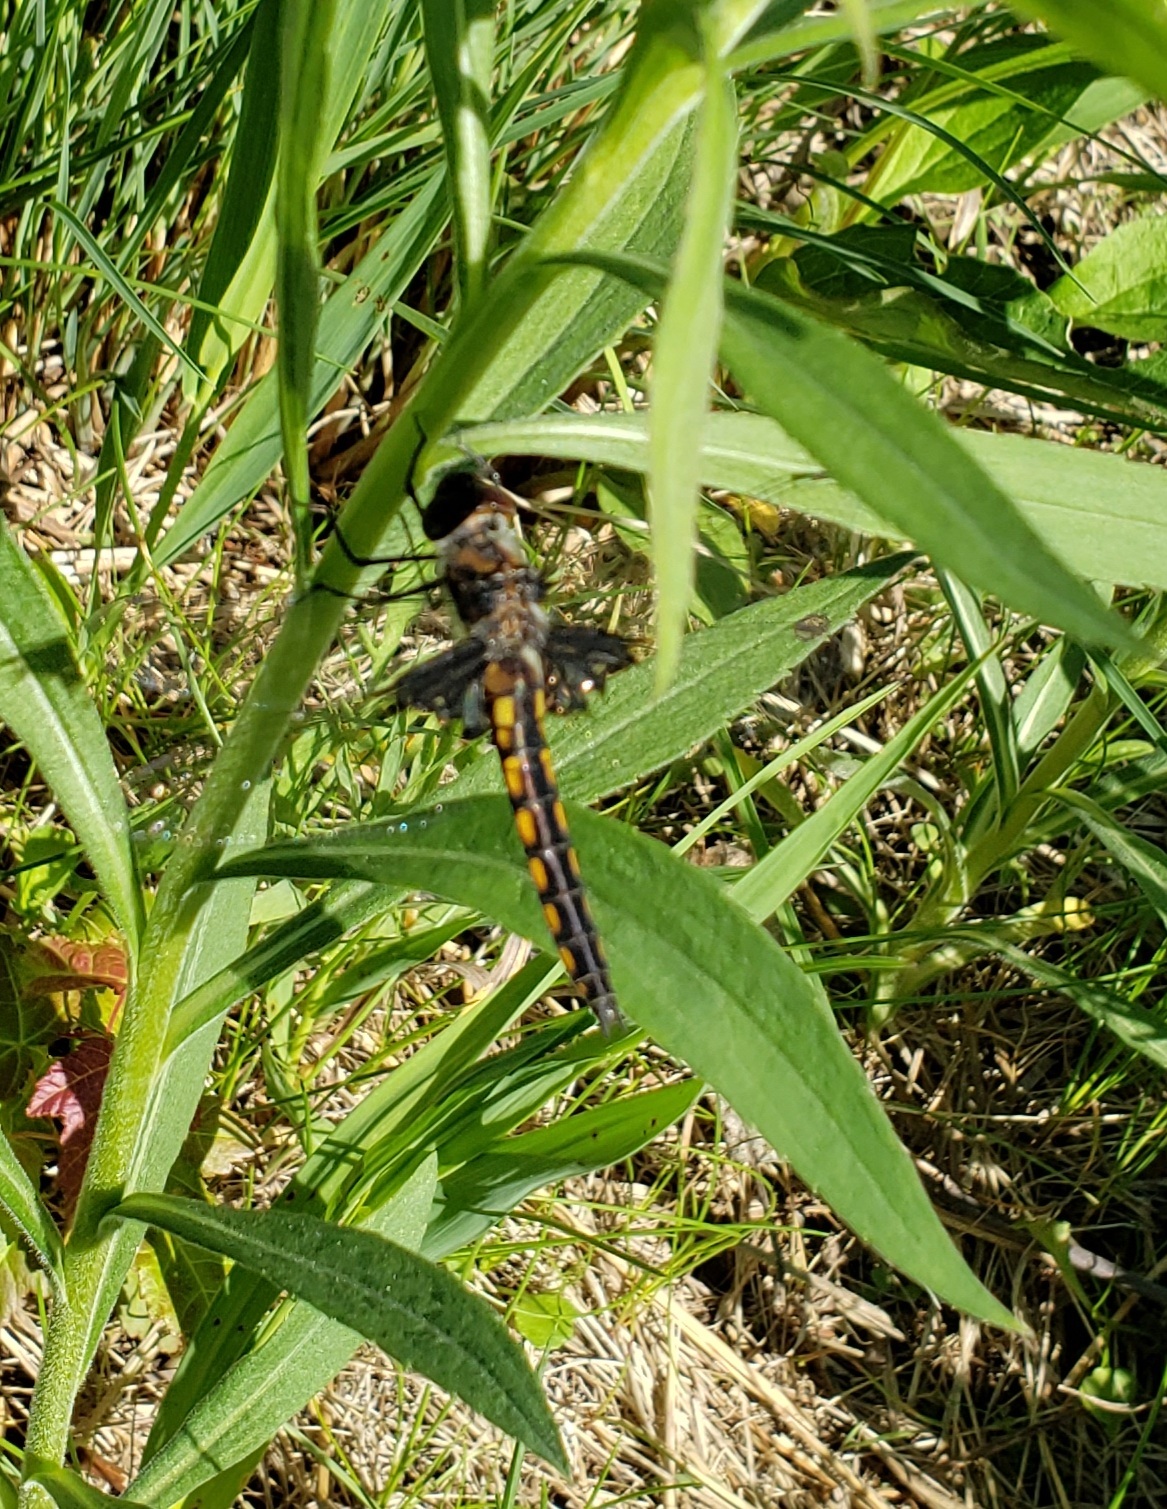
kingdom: Animalia
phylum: Arthropoda
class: Insecta
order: Odonata
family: Corduliidae
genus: Epitheca
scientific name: Epitheca cynosura
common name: Common baskettail
